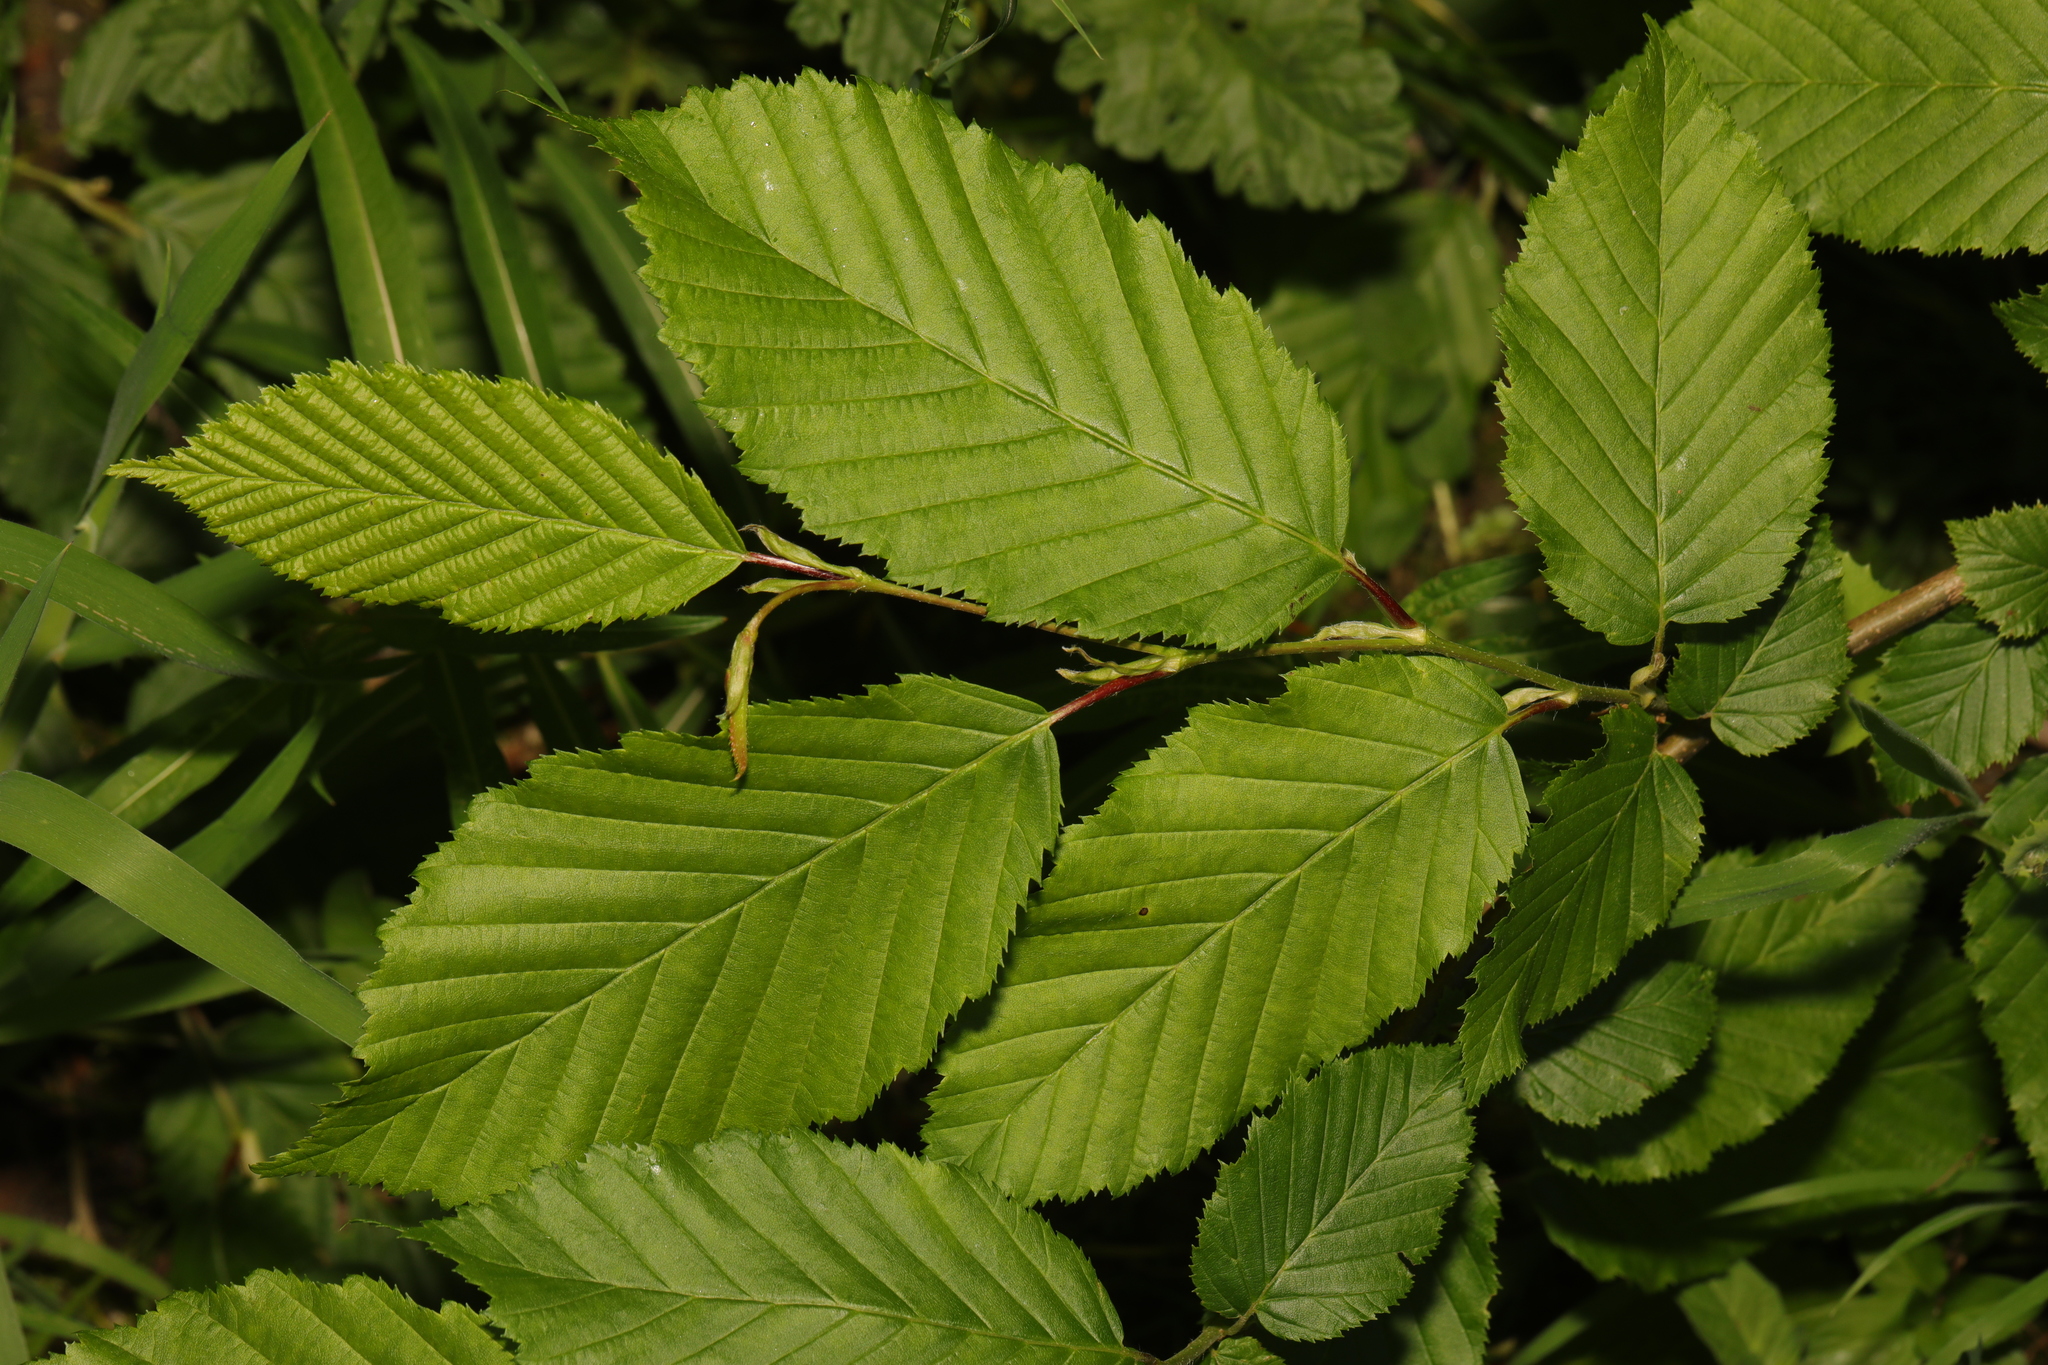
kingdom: Plantae
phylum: Tracheophyta
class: Magnoliopsida
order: Fagales
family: Betulaceae
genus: Carpinus
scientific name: Carpinus betulus
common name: Hornbeam
